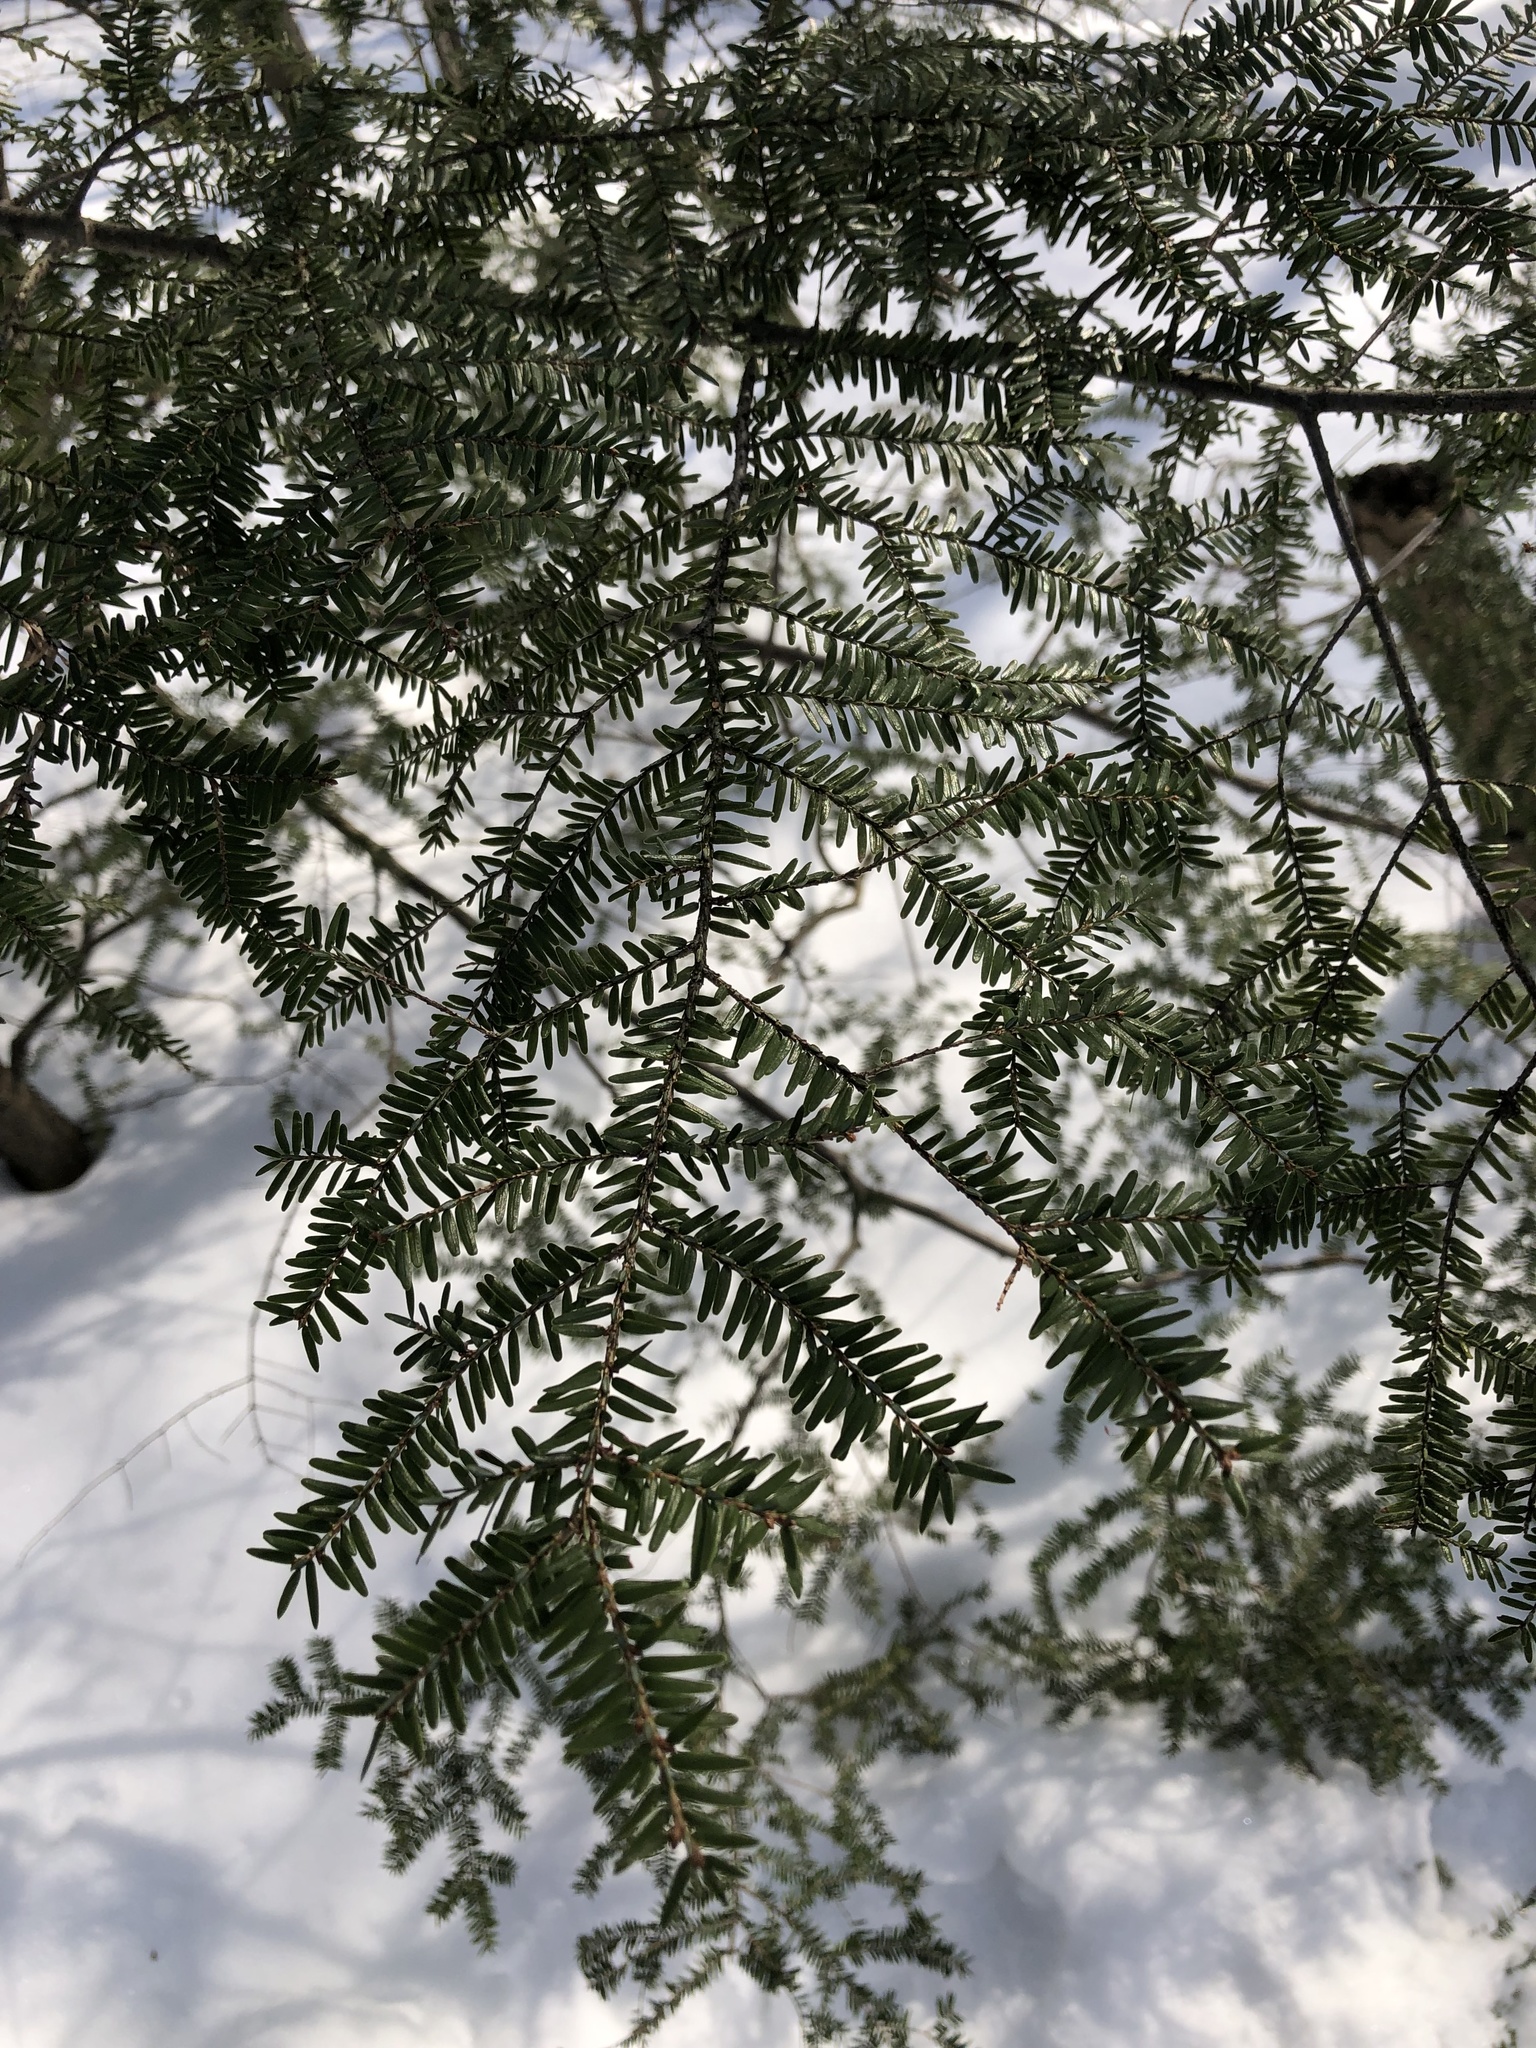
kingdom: Plantae
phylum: Tracheophyta
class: Pinopsida
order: Pinales
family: Pinaceae
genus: Tsuga
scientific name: Tsuga canadensis
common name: Eastern hemlock
